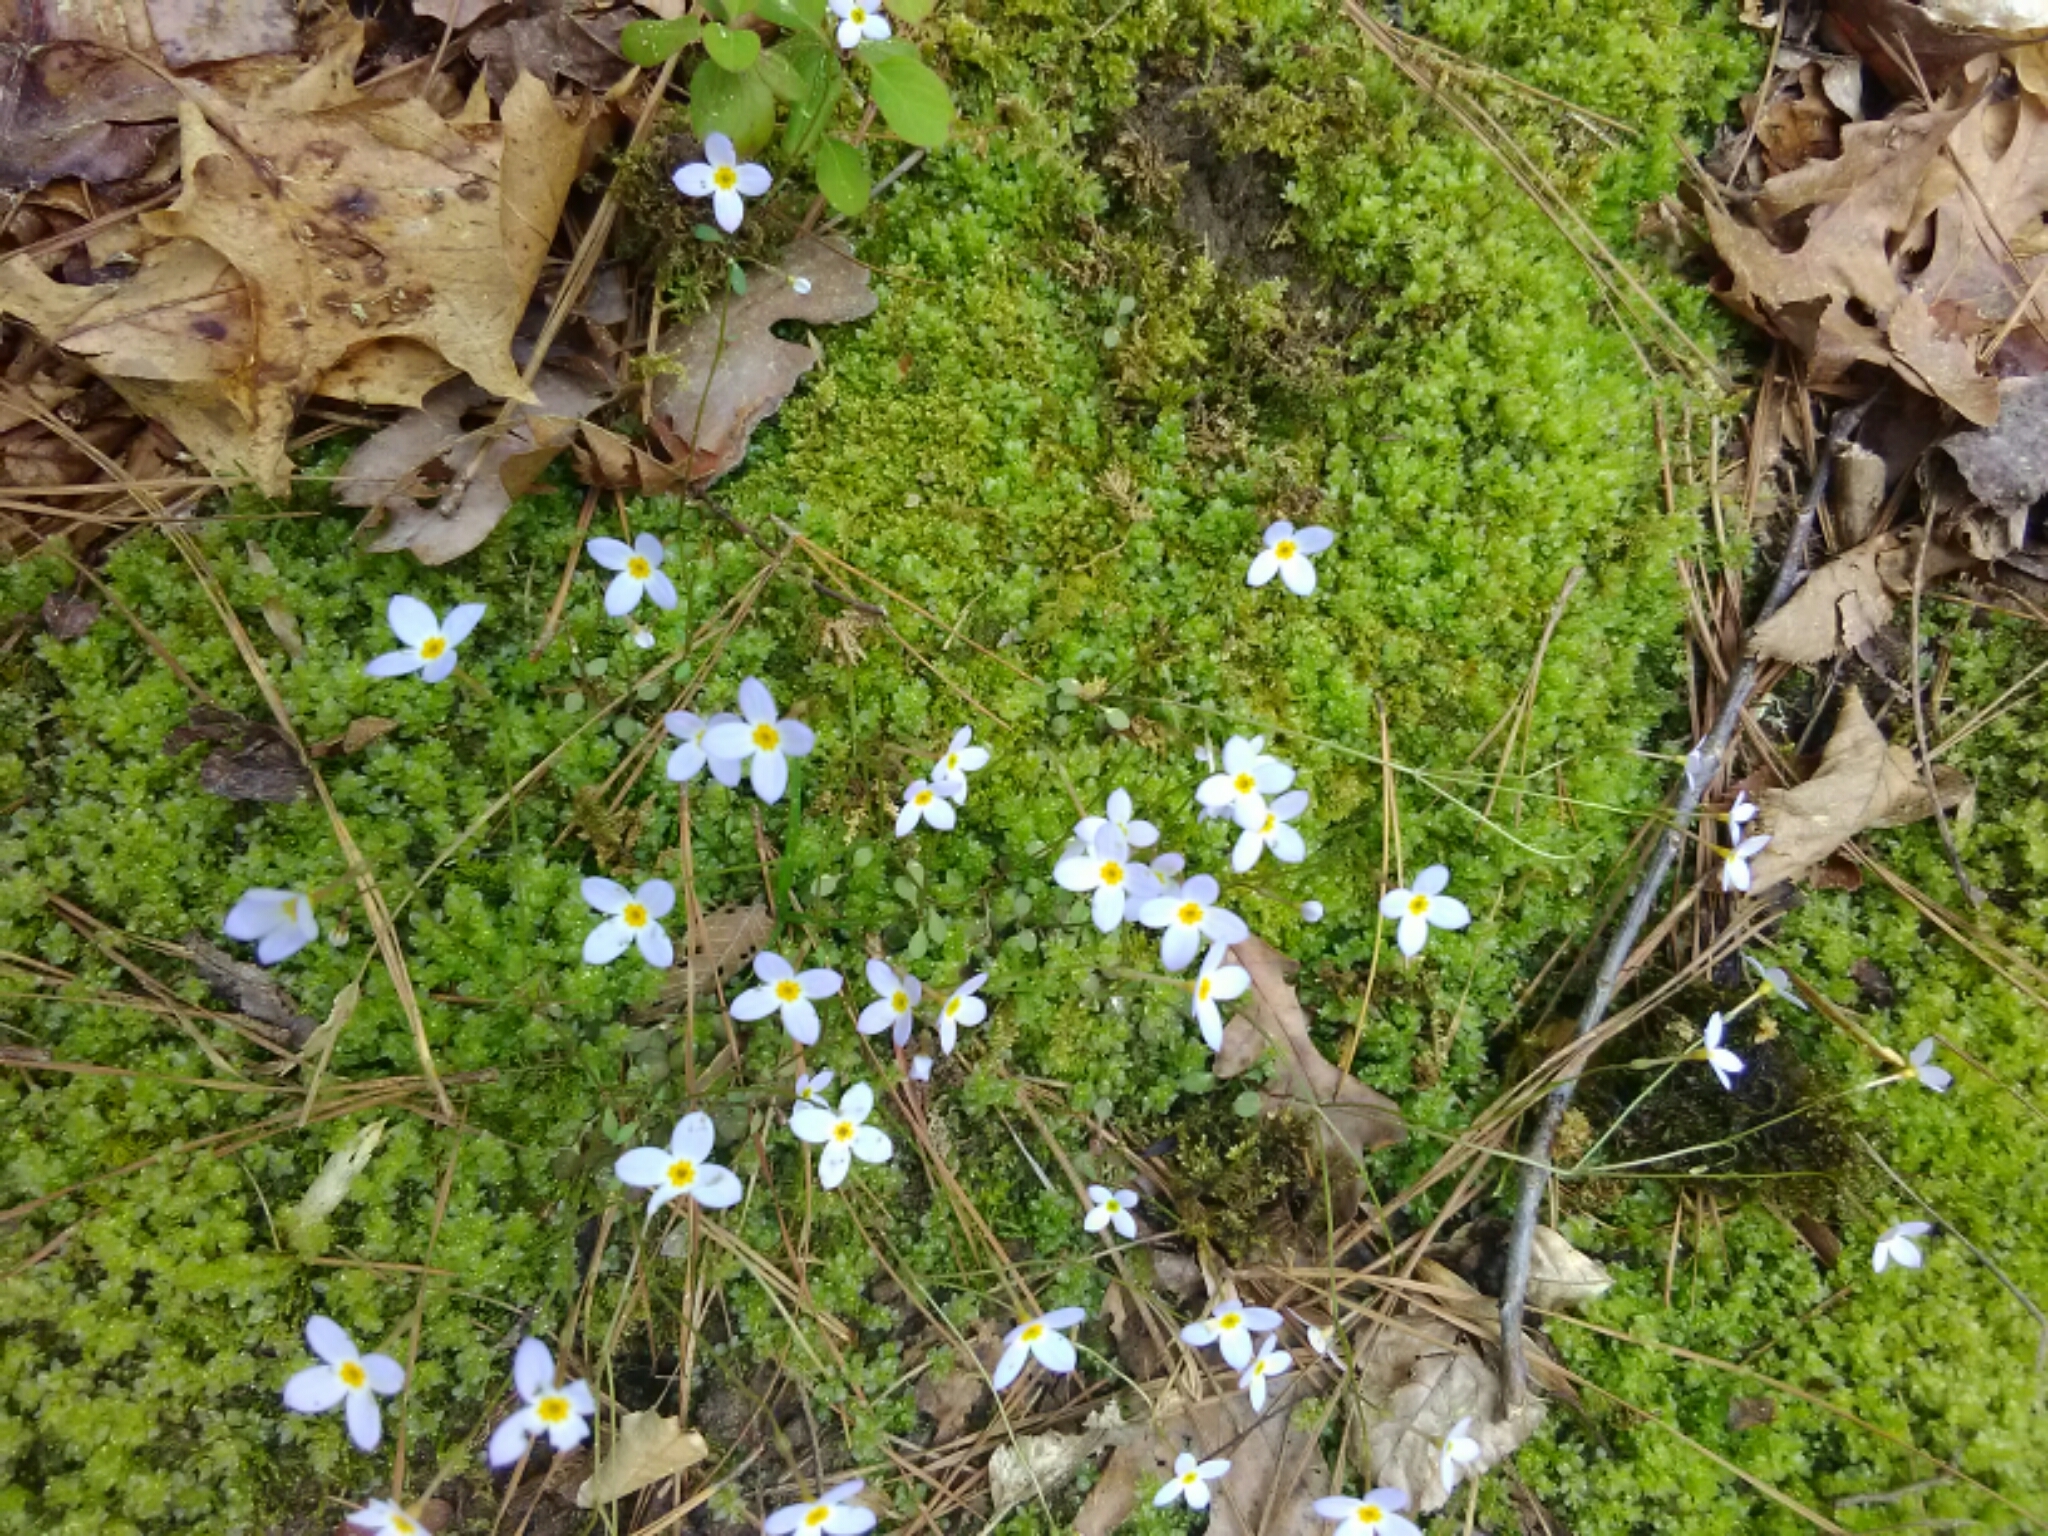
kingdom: Plantae
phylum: Tracheophyta
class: Magnoliopsida
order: Gentianales
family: Rubiaceae
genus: Houstonia
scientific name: Houstonia caerulea
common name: Bluets
